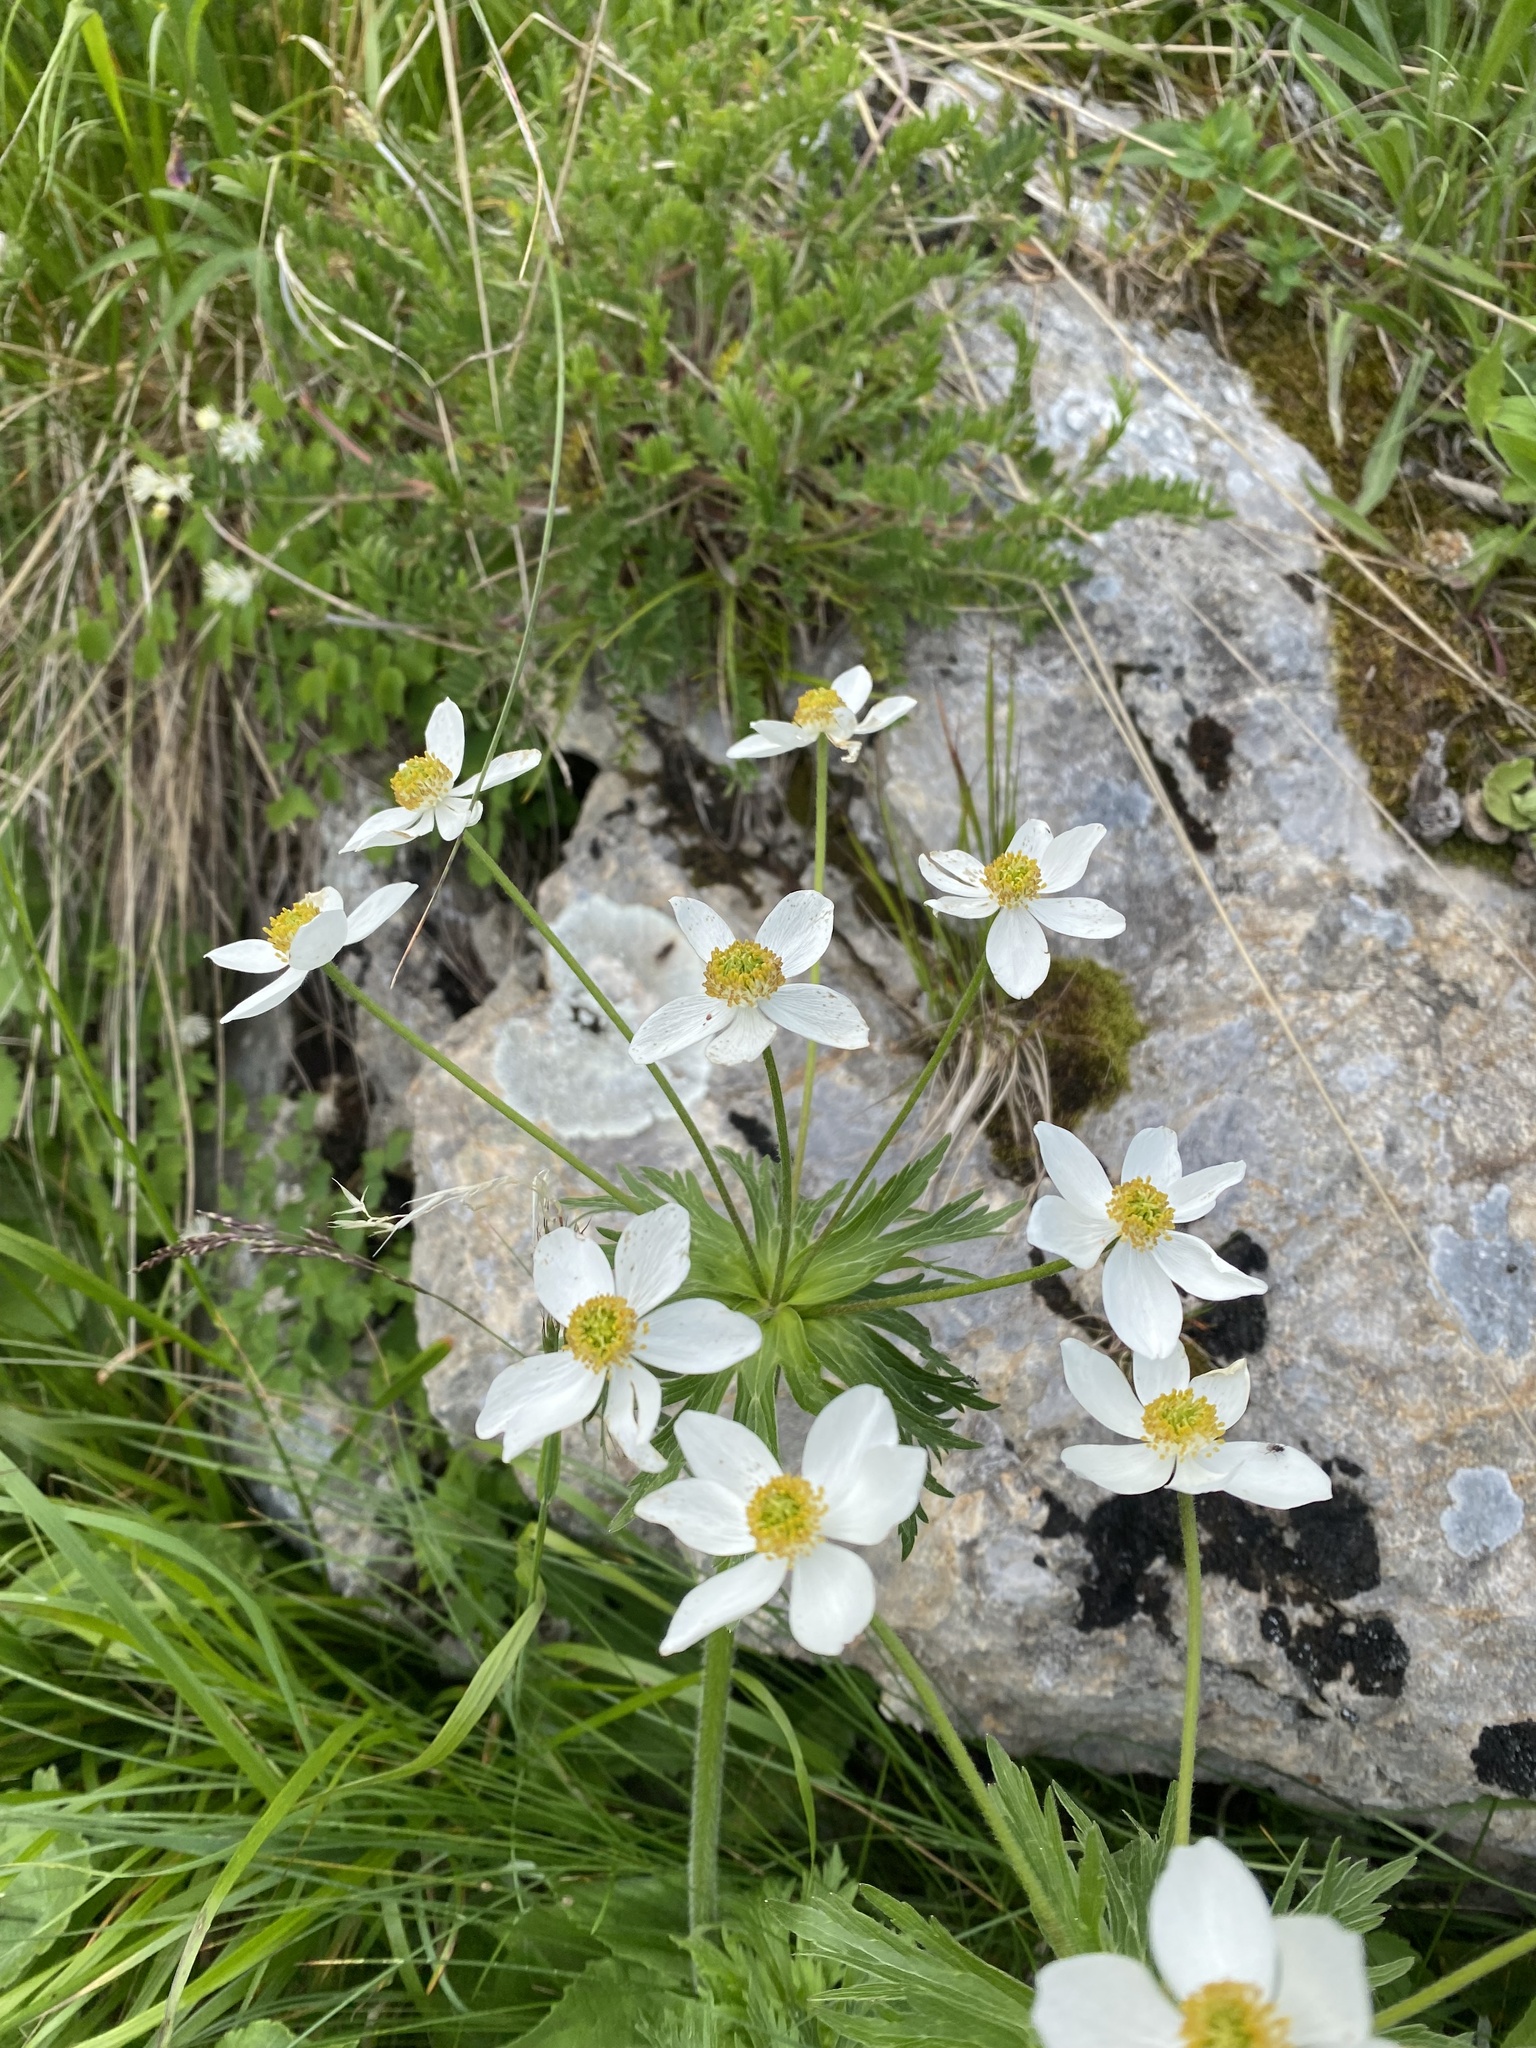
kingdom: Plantae
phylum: Tracheophyta
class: Magnoliopsida
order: Ranunculales
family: Ranunculaceae
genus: Anemonastrum
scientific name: Anemonastrum narcissiflorum
